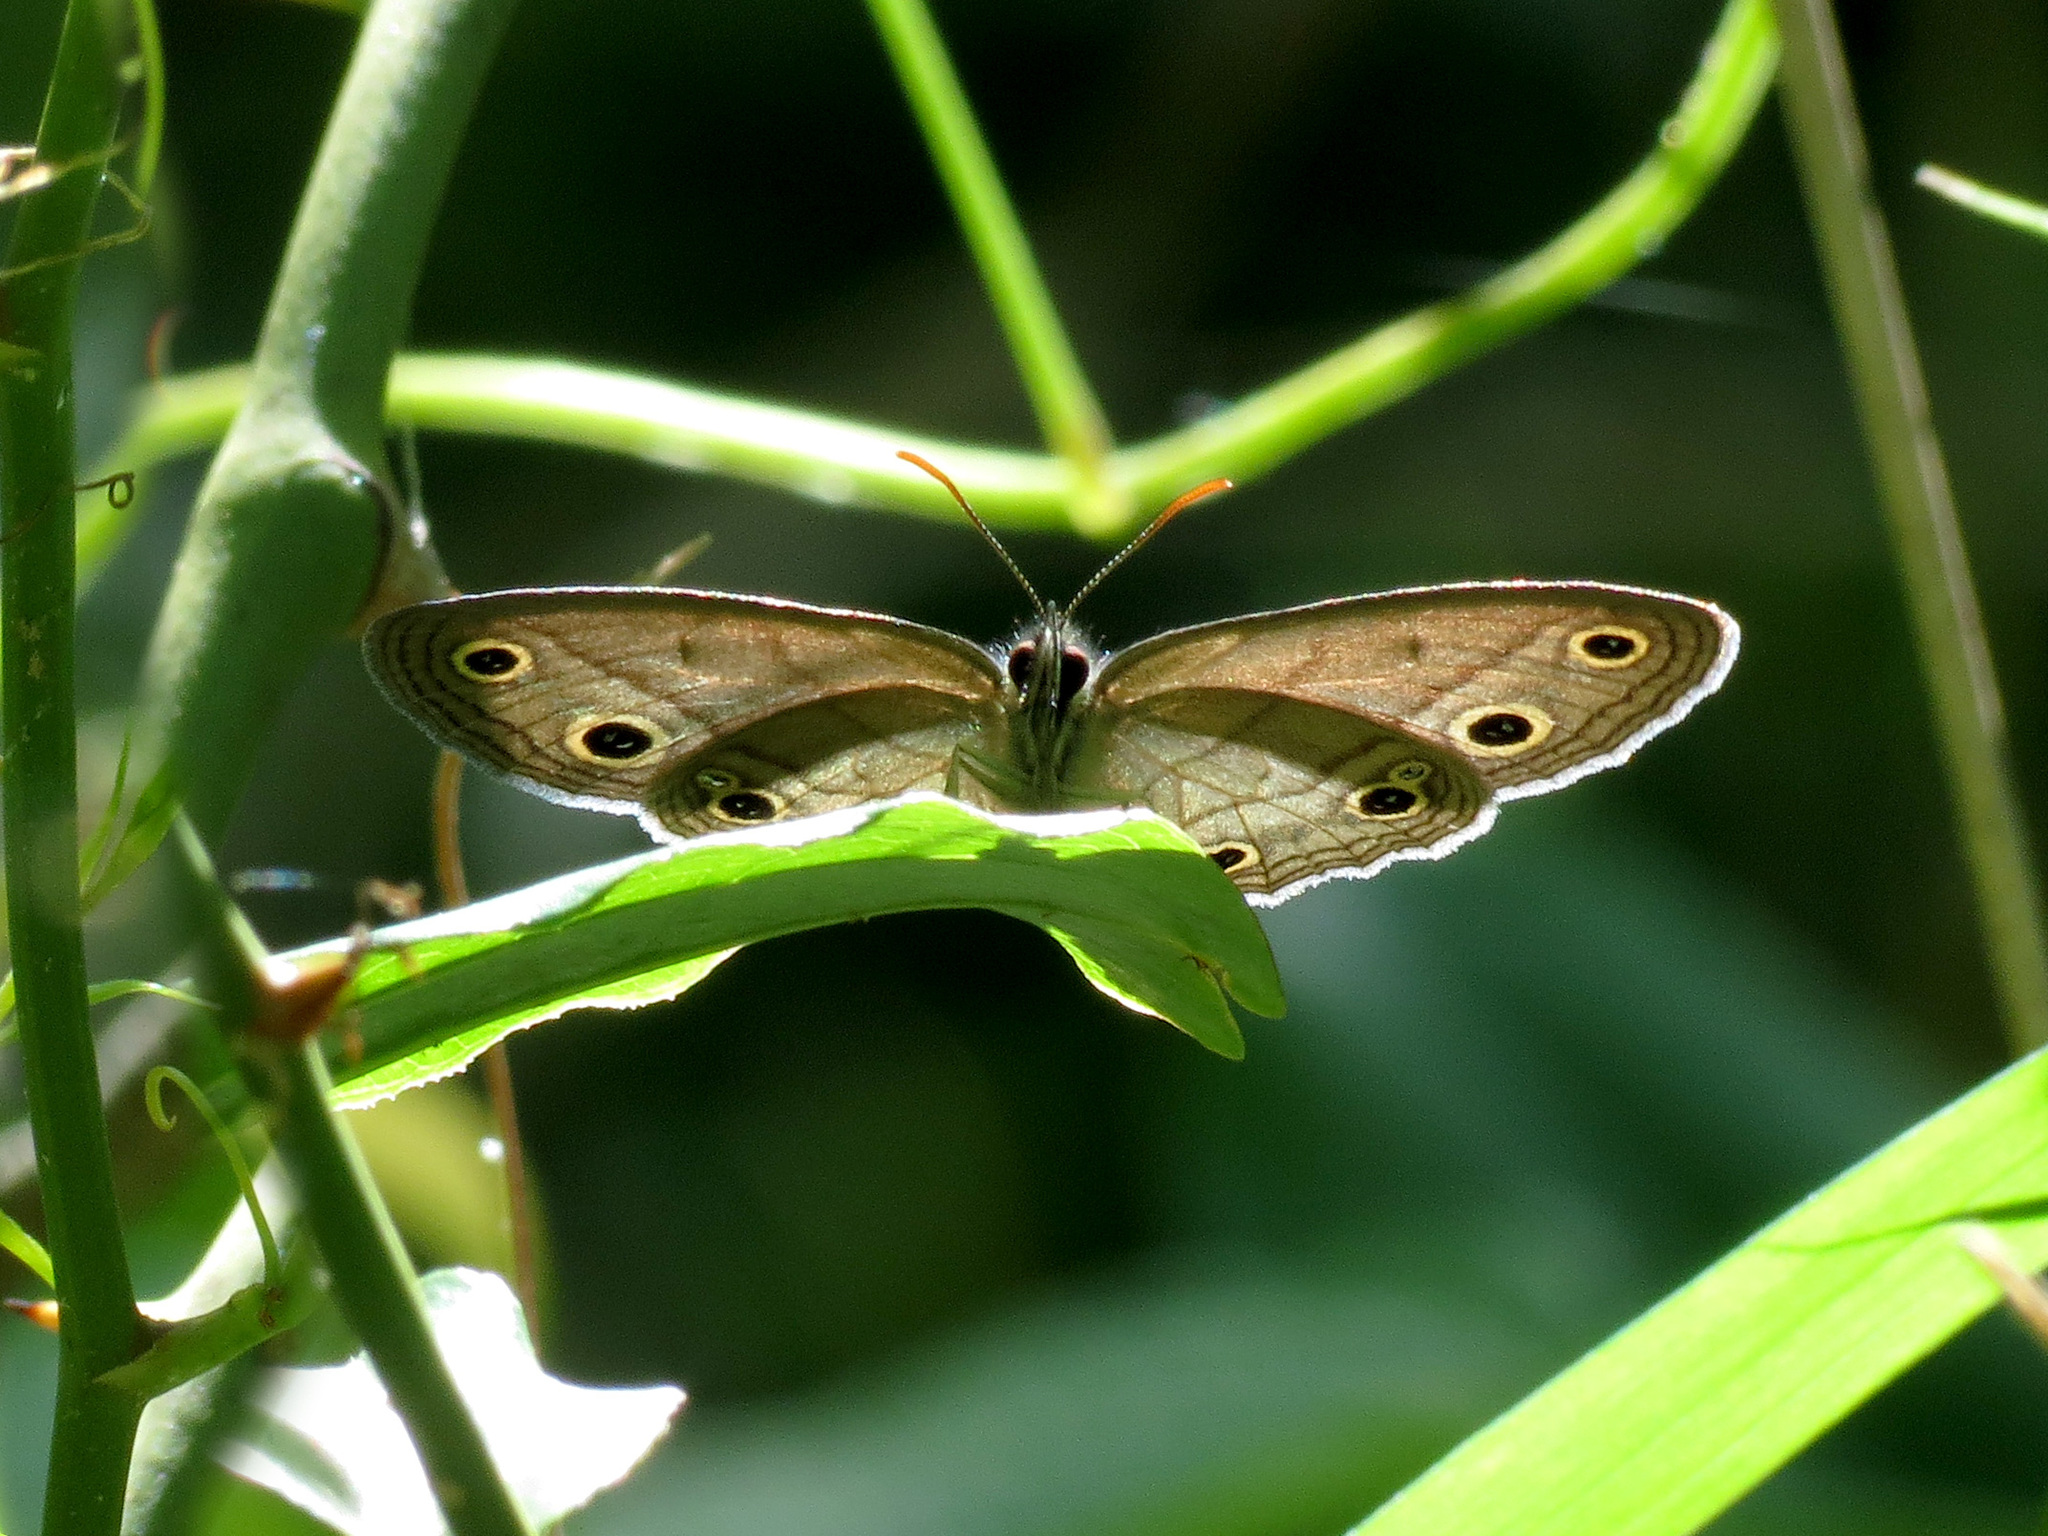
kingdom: Animalia
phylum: Arthropoda
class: Insecta
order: Lepidoptera
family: Nymphalidae
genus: Euptychia
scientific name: Euptychia cymela
